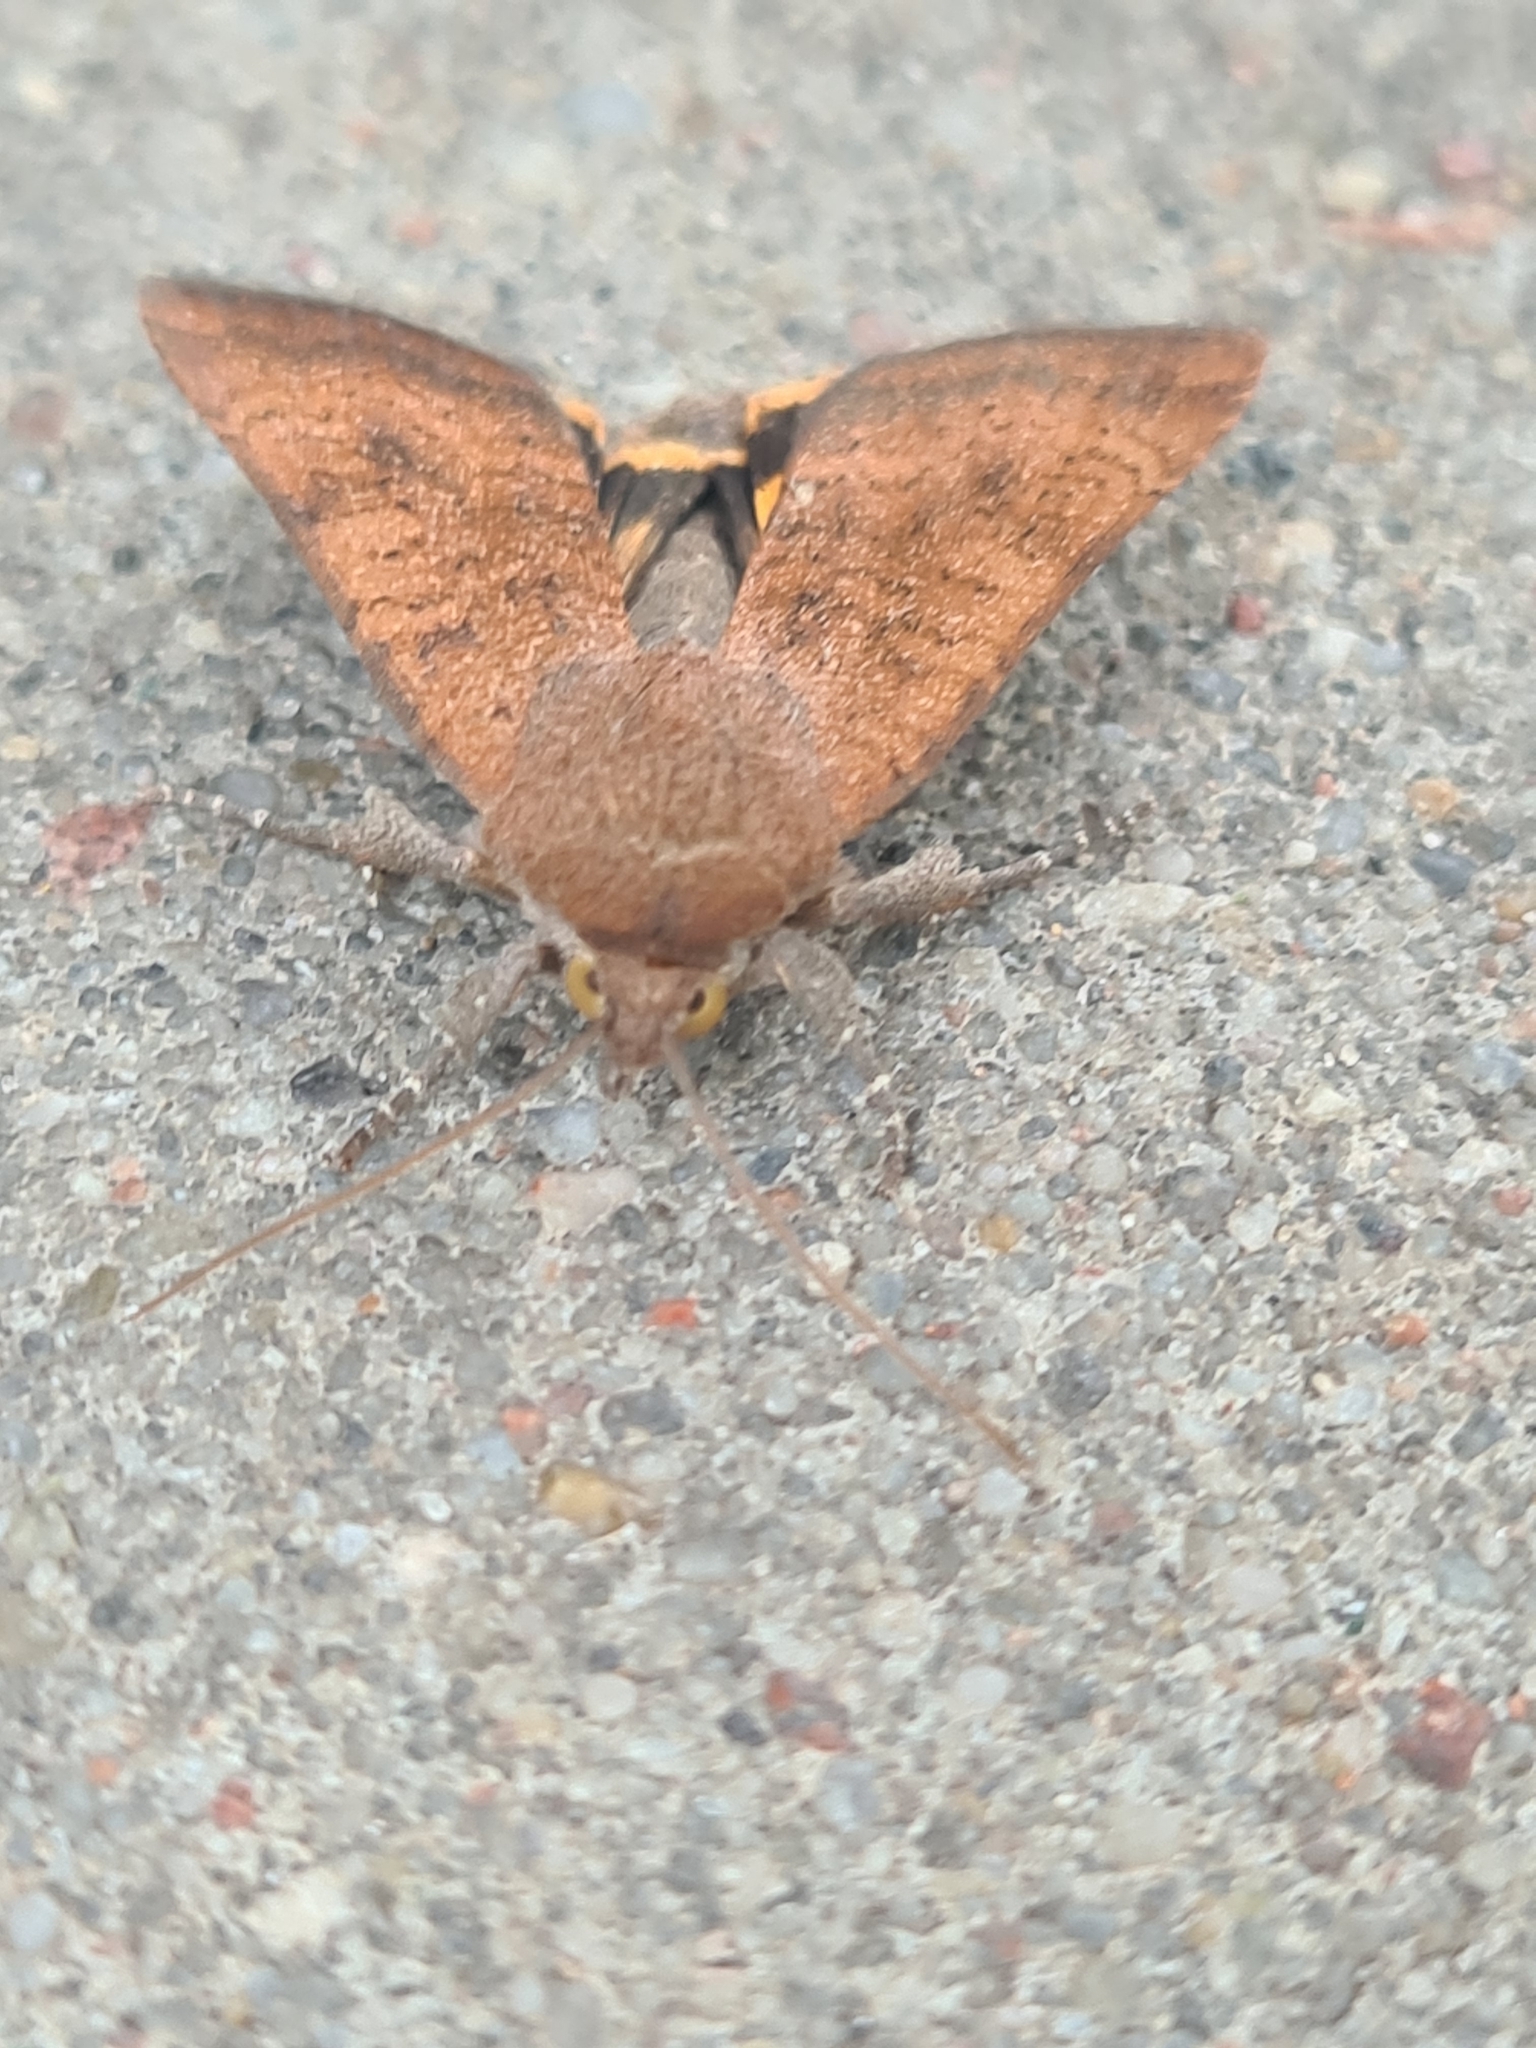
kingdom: Animalia
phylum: Arthropoda
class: Insecta
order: Lepidoptera
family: Noctuidae
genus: Noctua
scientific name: Noctua interjecta
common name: Least yellow underwing
